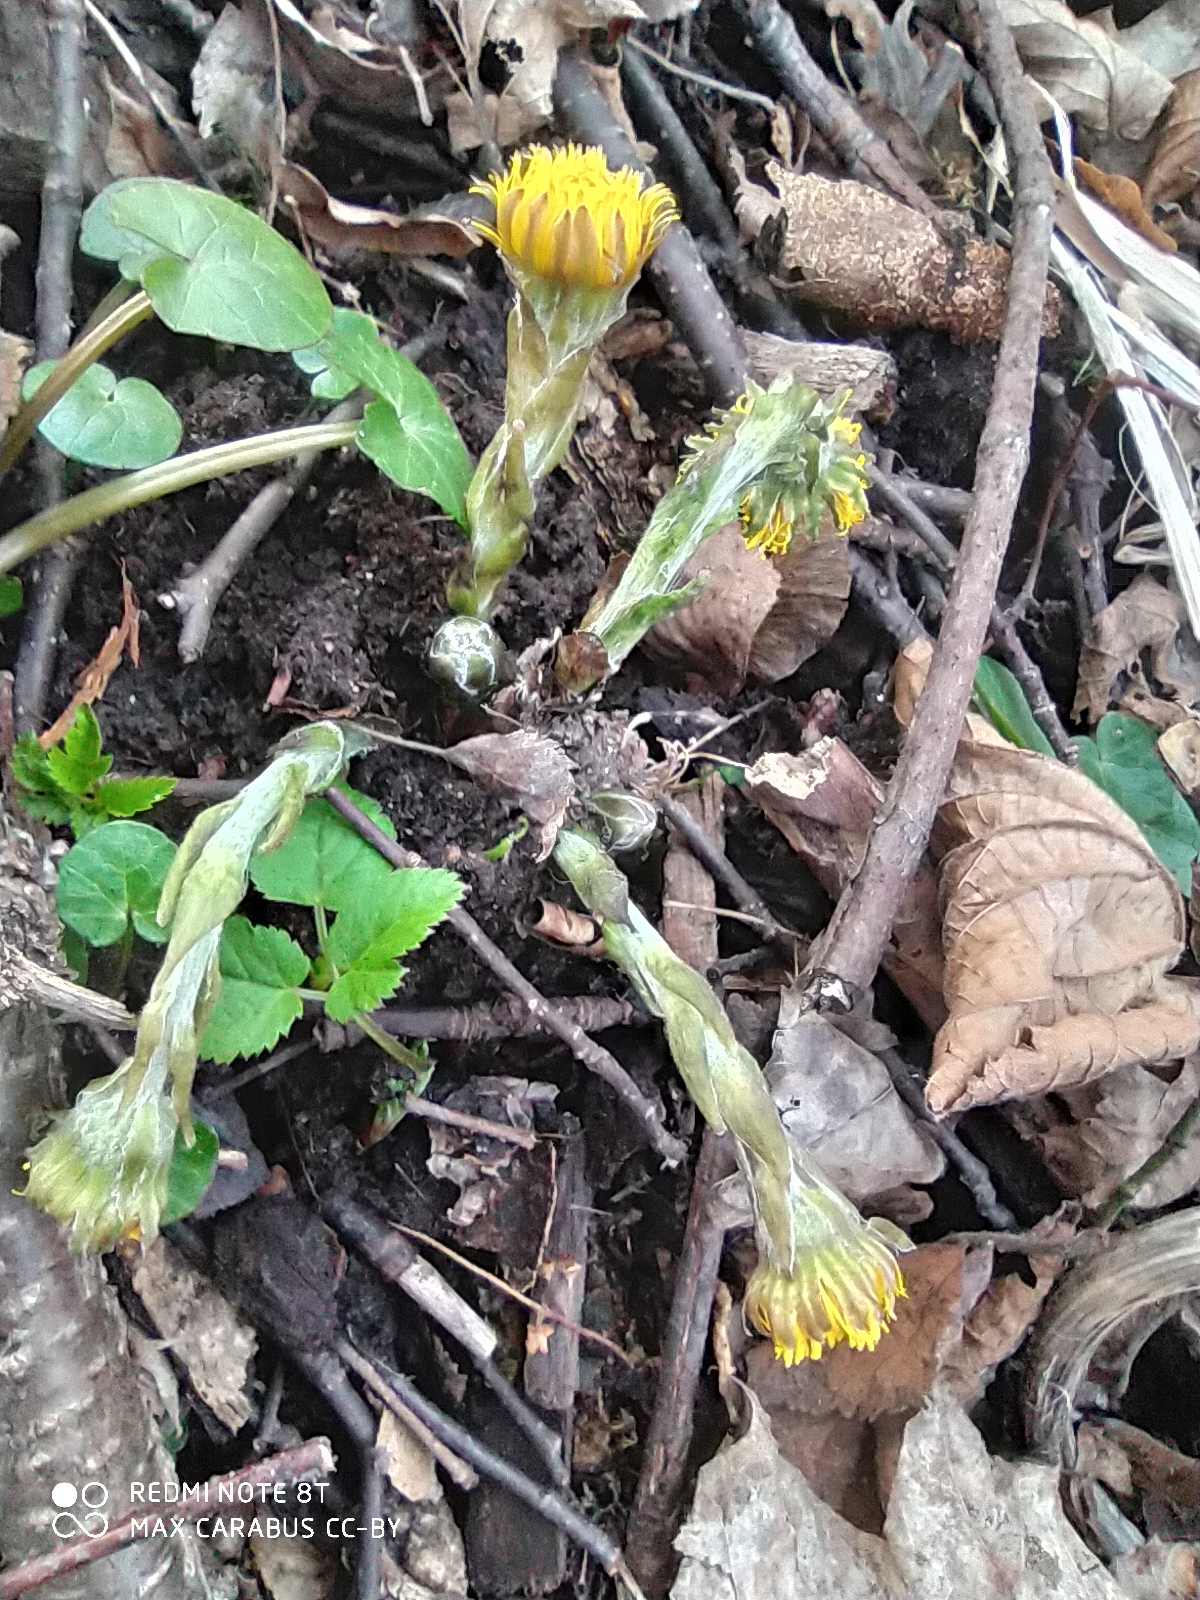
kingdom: Plantae
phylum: Tracheophyta
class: Magnoliopsida
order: Asterales
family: Asteraceae
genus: Tussilago
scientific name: Tussilago farfara
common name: Coltsfoot
